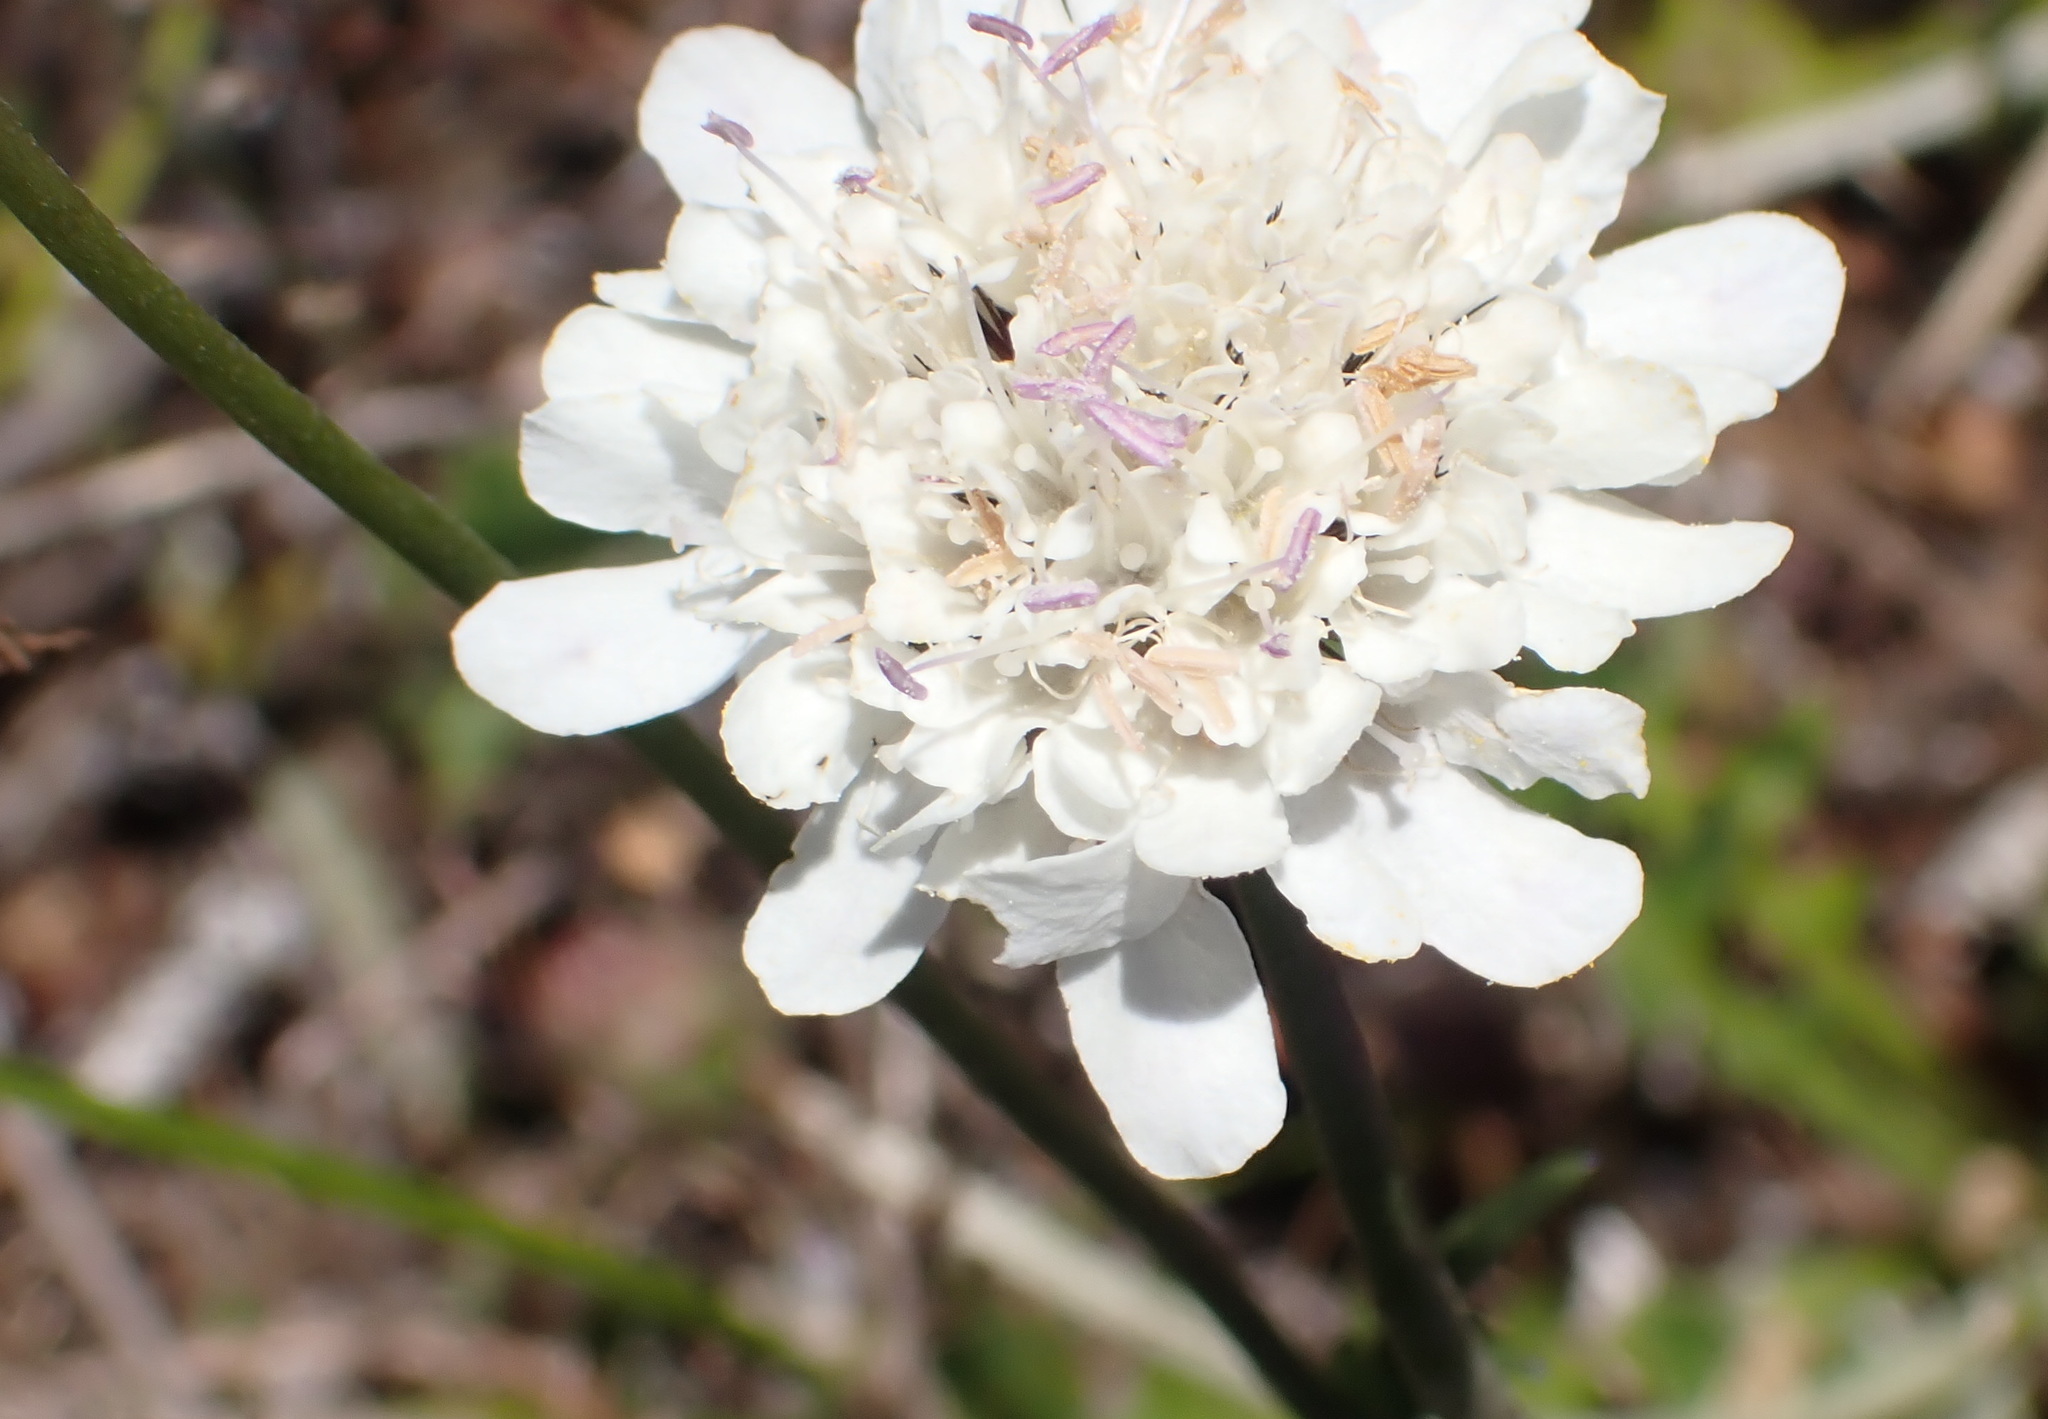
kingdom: Plantae
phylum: Tracheophyta
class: Magnoliopsida
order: Dipsacales
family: Caprifoliaceae
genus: Scabiosa
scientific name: Scabiosa columbaria
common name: Small scabious
